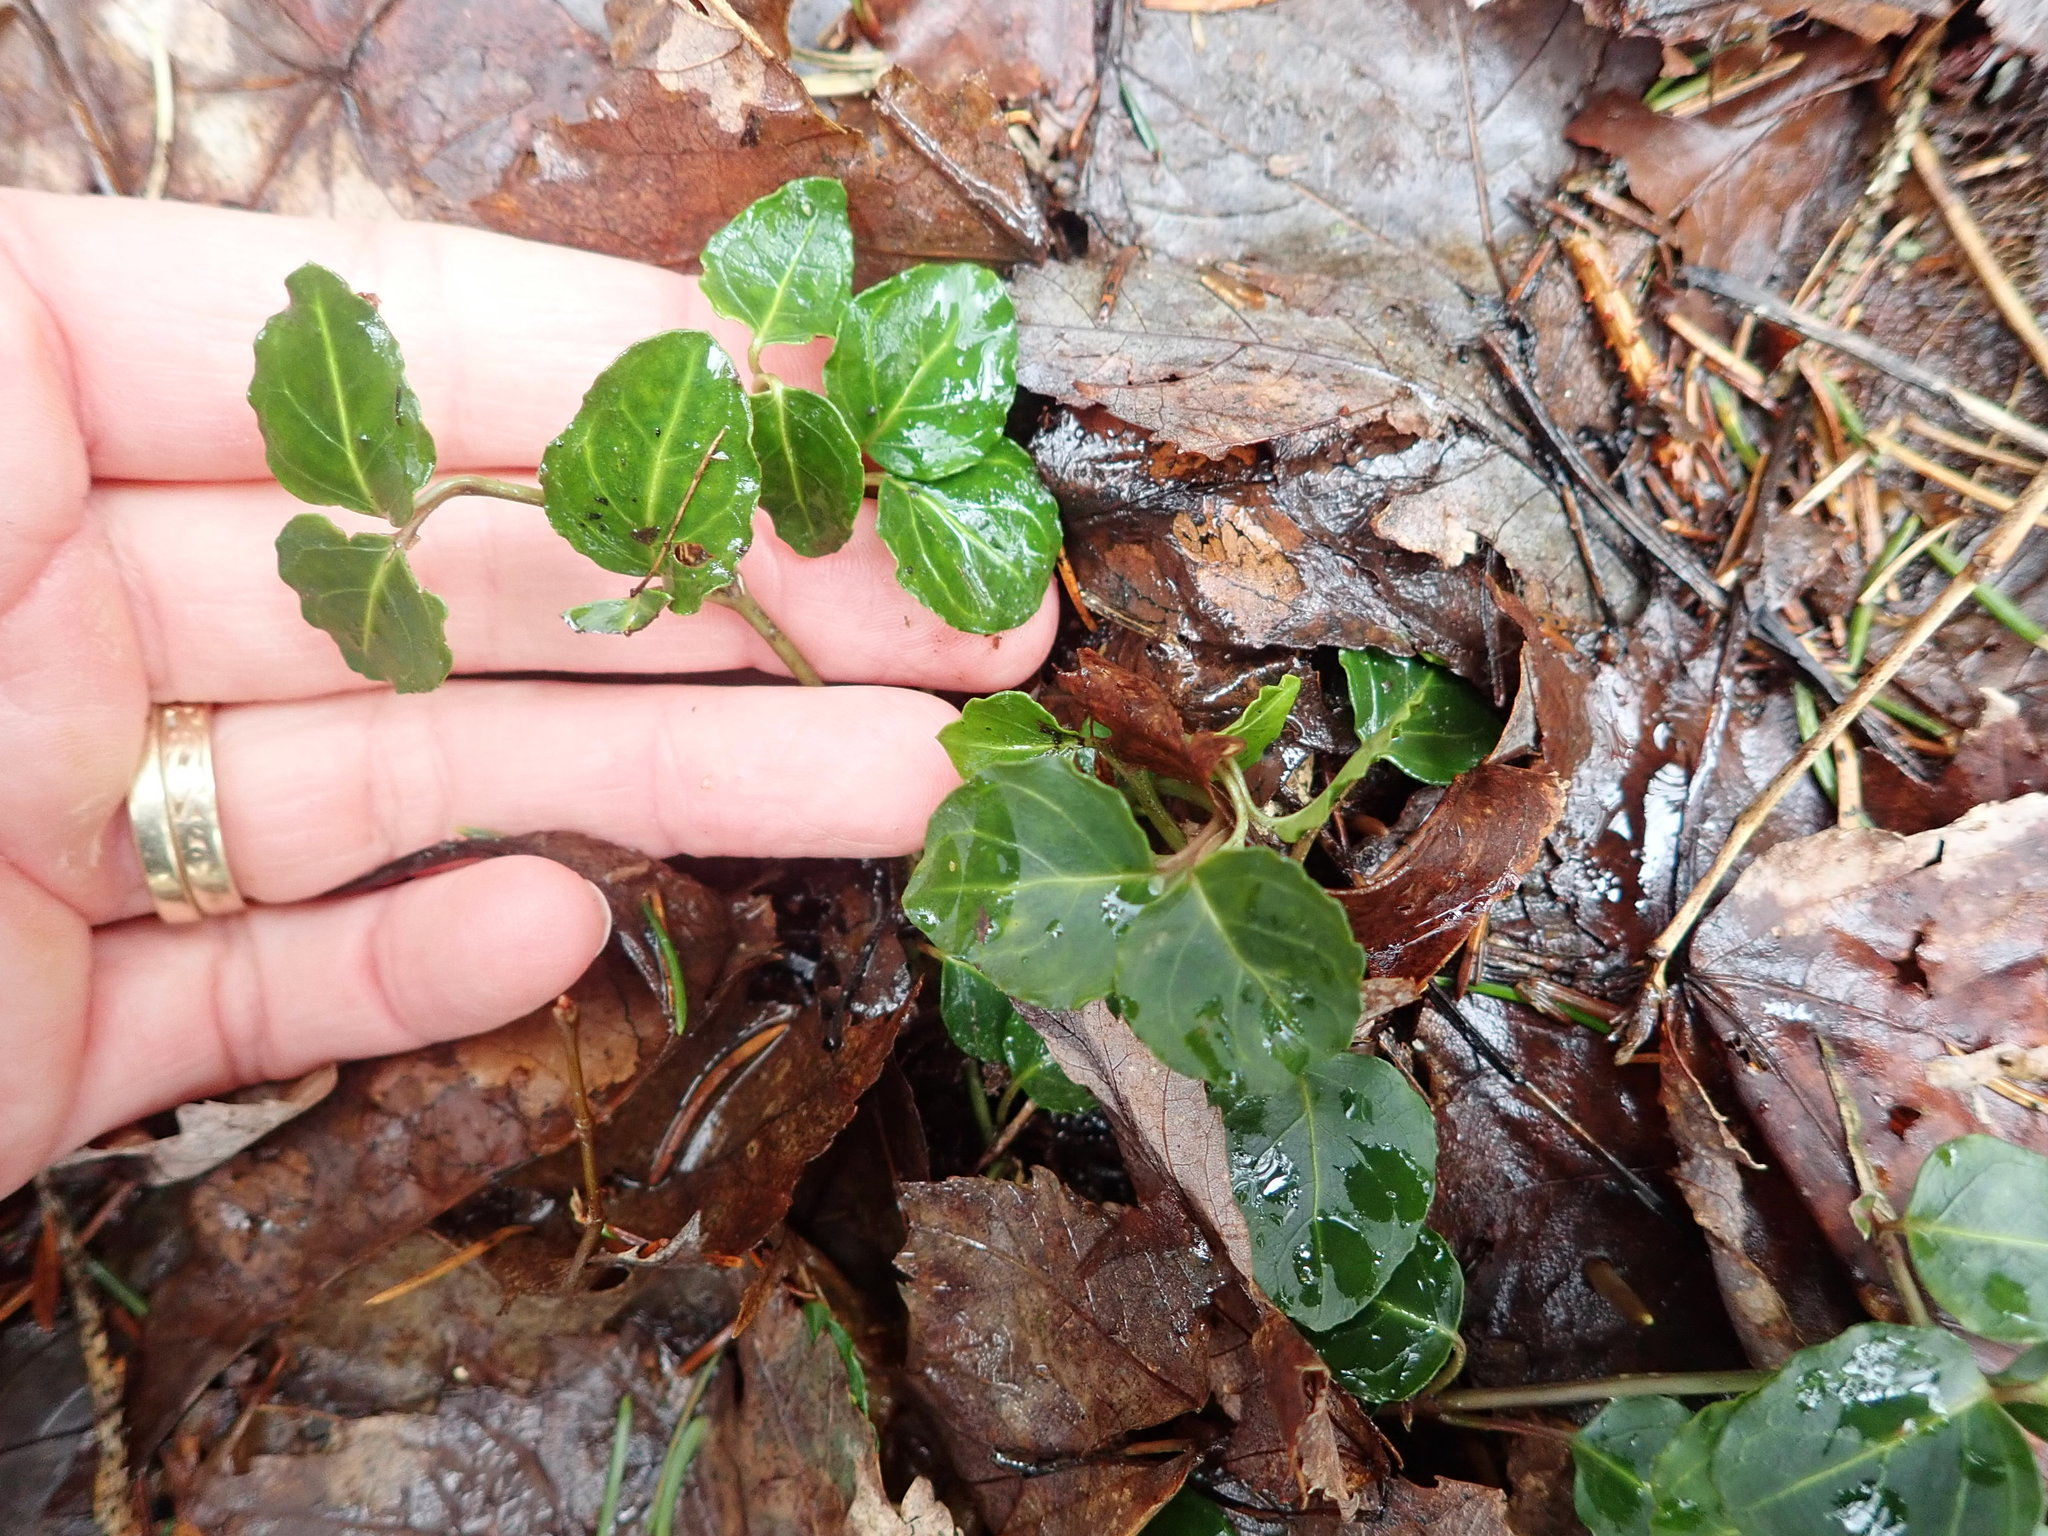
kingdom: Plantae
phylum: Tracheophyta
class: Magnoliopsida
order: Gentianales
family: Rubiaceae
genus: Mitchella
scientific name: Mitchella repens
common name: Partridge-berry
